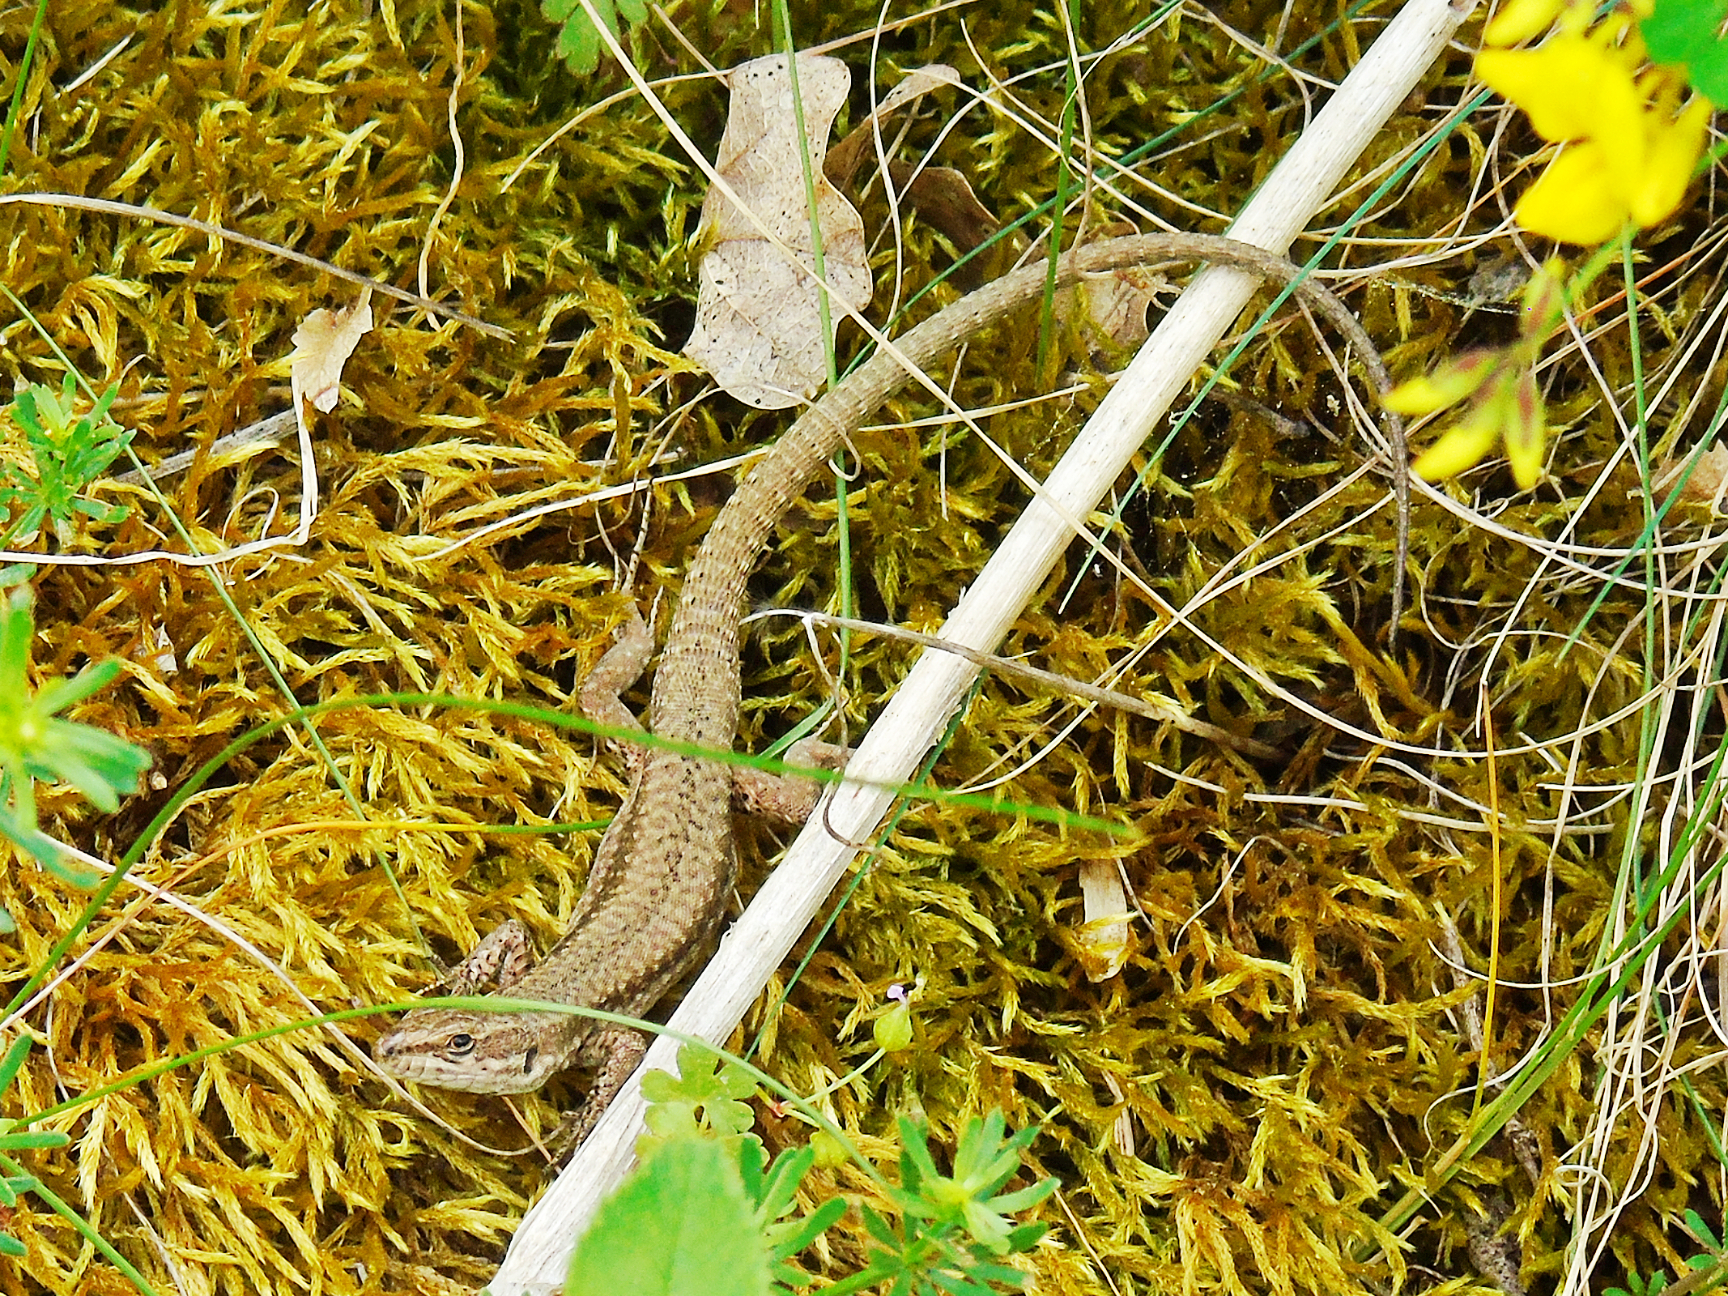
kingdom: Animalia
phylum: Chordata
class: Squamata
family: Lacertidae
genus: Podarcis
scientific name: Podarcis muralis
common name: Common wall lizard
